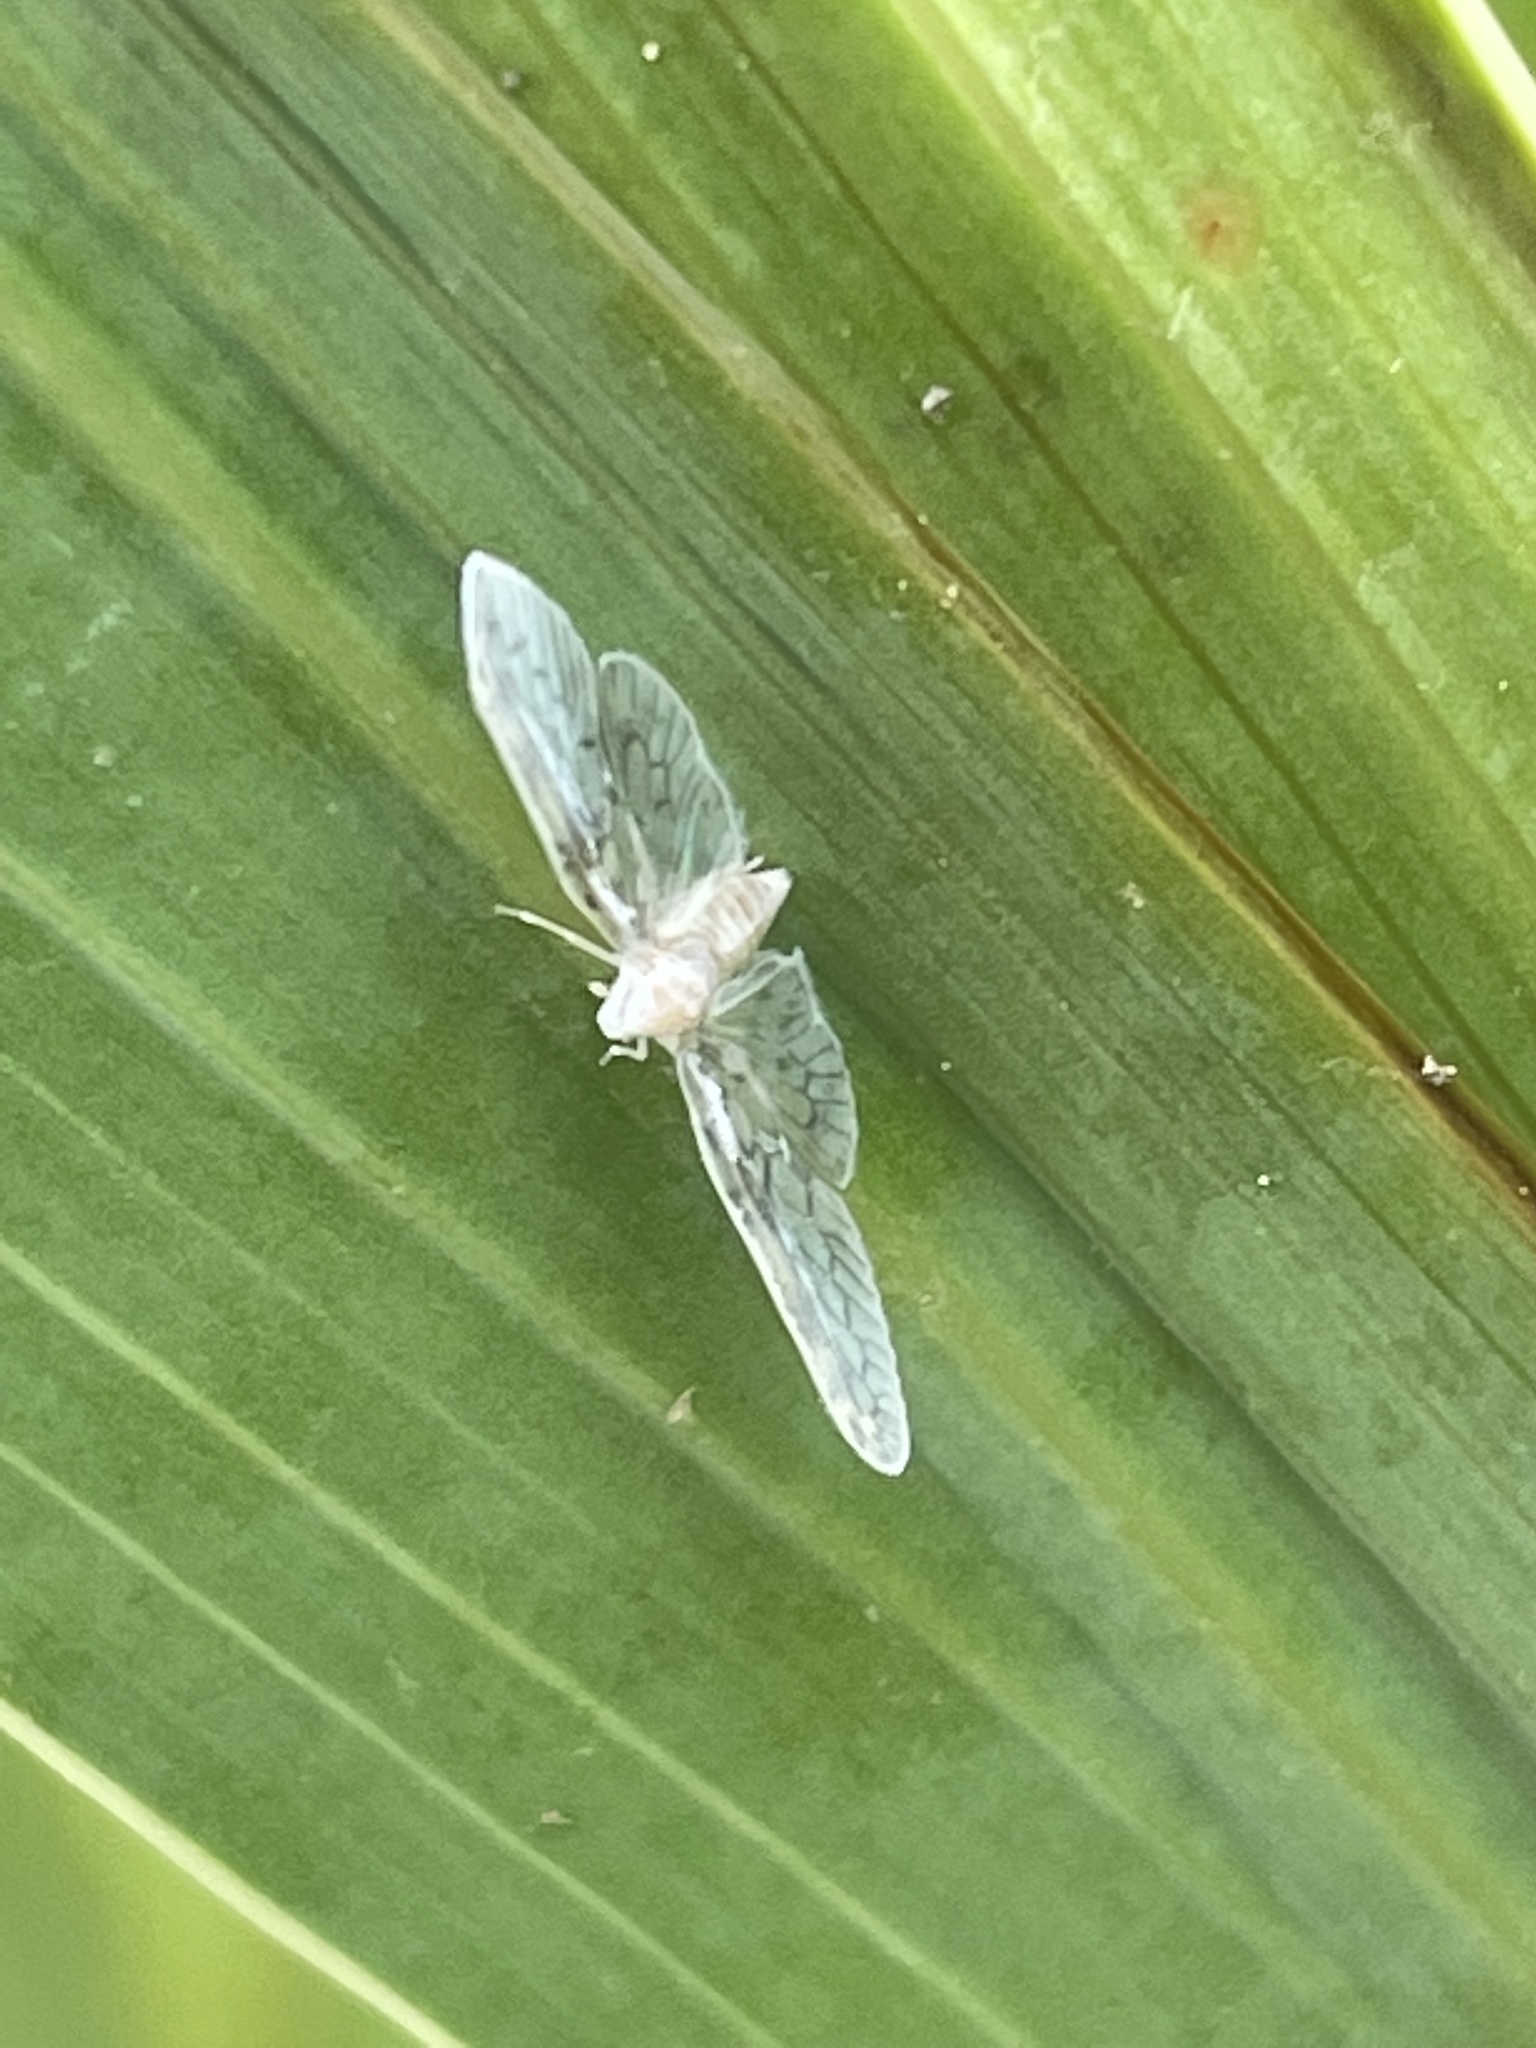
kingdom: Animalia
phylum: Arthropoda
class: Insecta
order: Hemiptera
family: Derbidae
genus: Paramysidia
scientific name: Paramysidia mississippiensis
